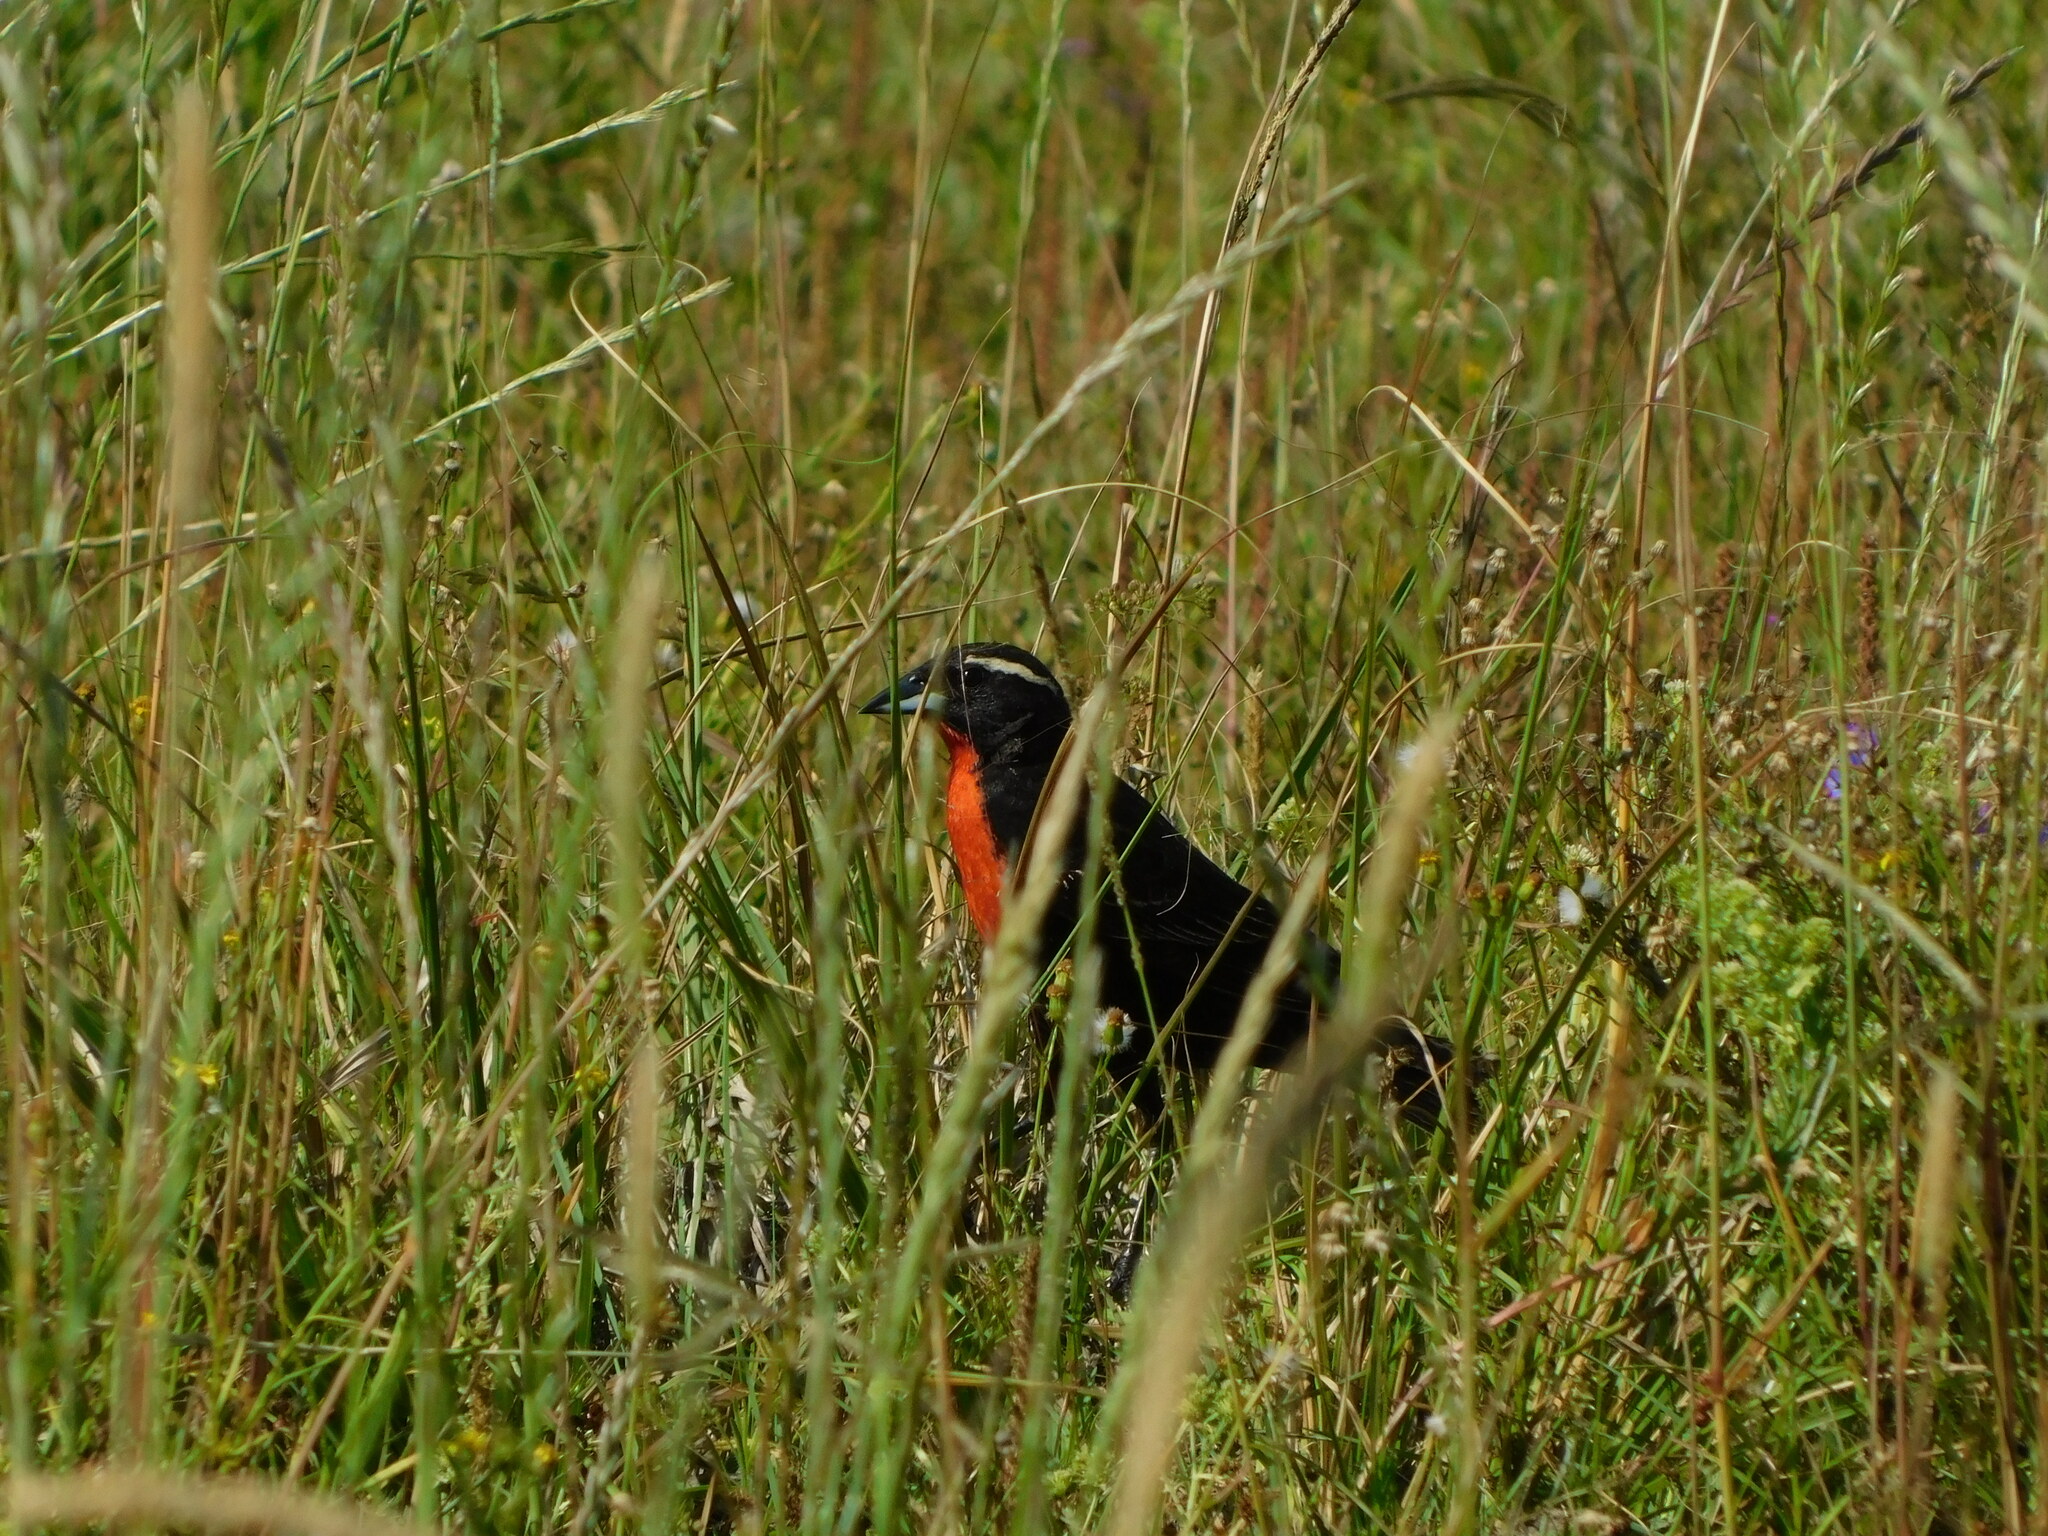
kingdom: Animalia
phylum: Chordata
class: Aves
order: Passeriformes
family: Icteridae
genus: Sturnella
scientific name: Sturnella superciliaris
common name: White-browed blackbird
